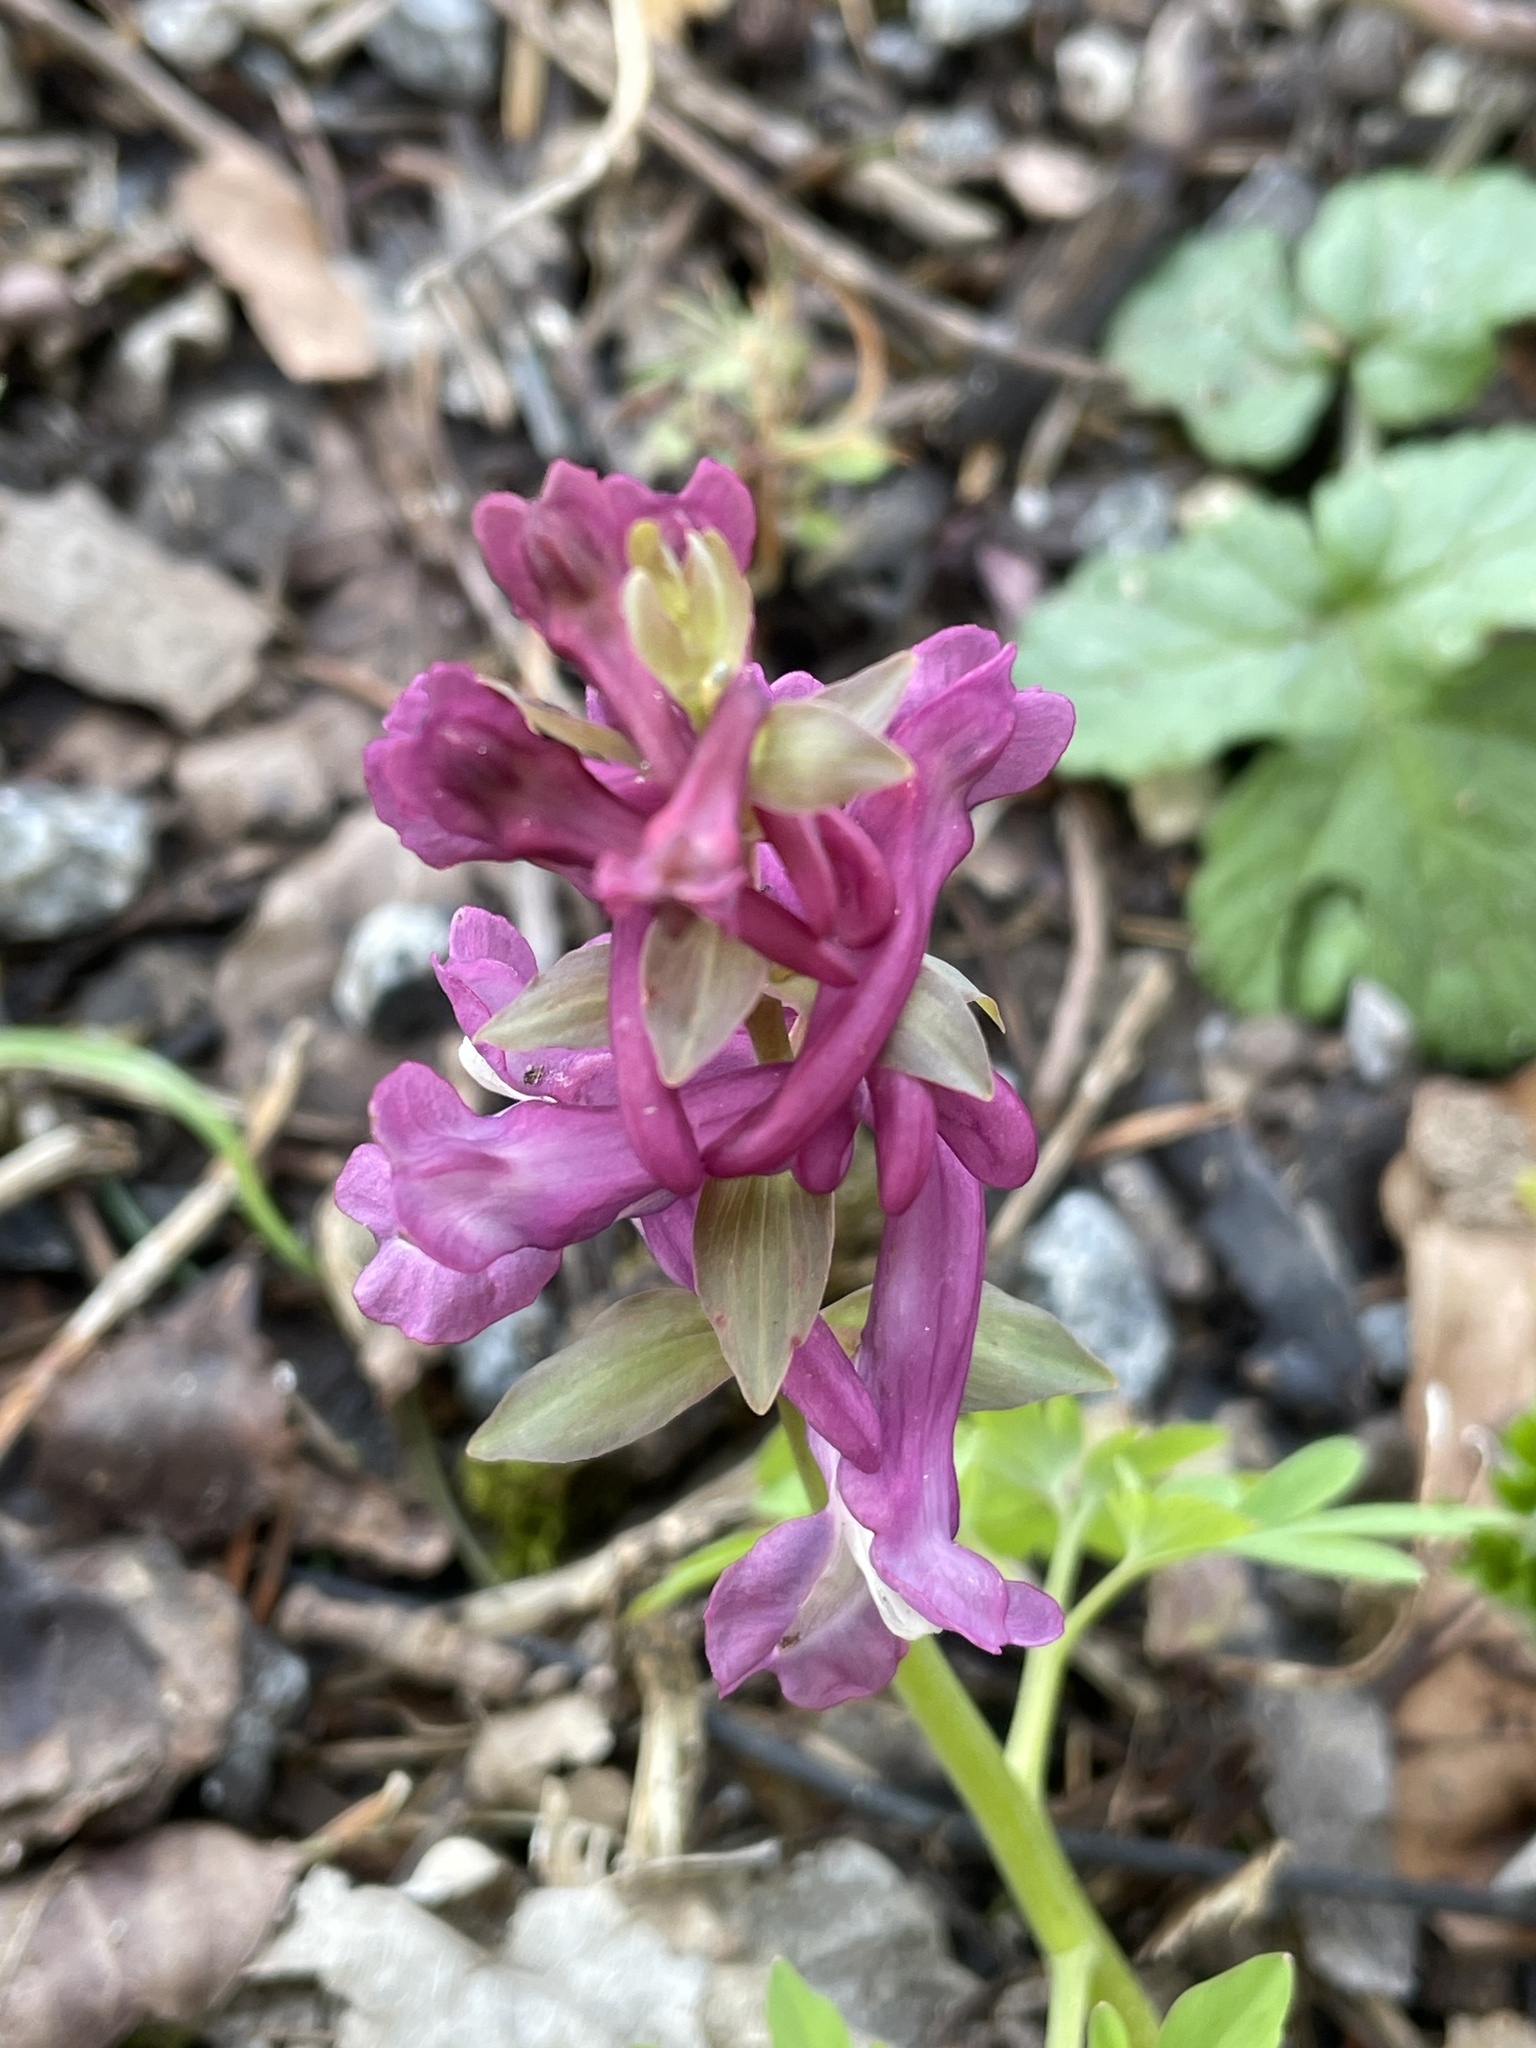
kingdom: Plantae
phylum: Tracheophyta
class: Magnoliopsida
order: Ranunculales
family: Papaveraceae
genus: Corydalis
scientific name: Corydalis cava
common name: Hollowroot
